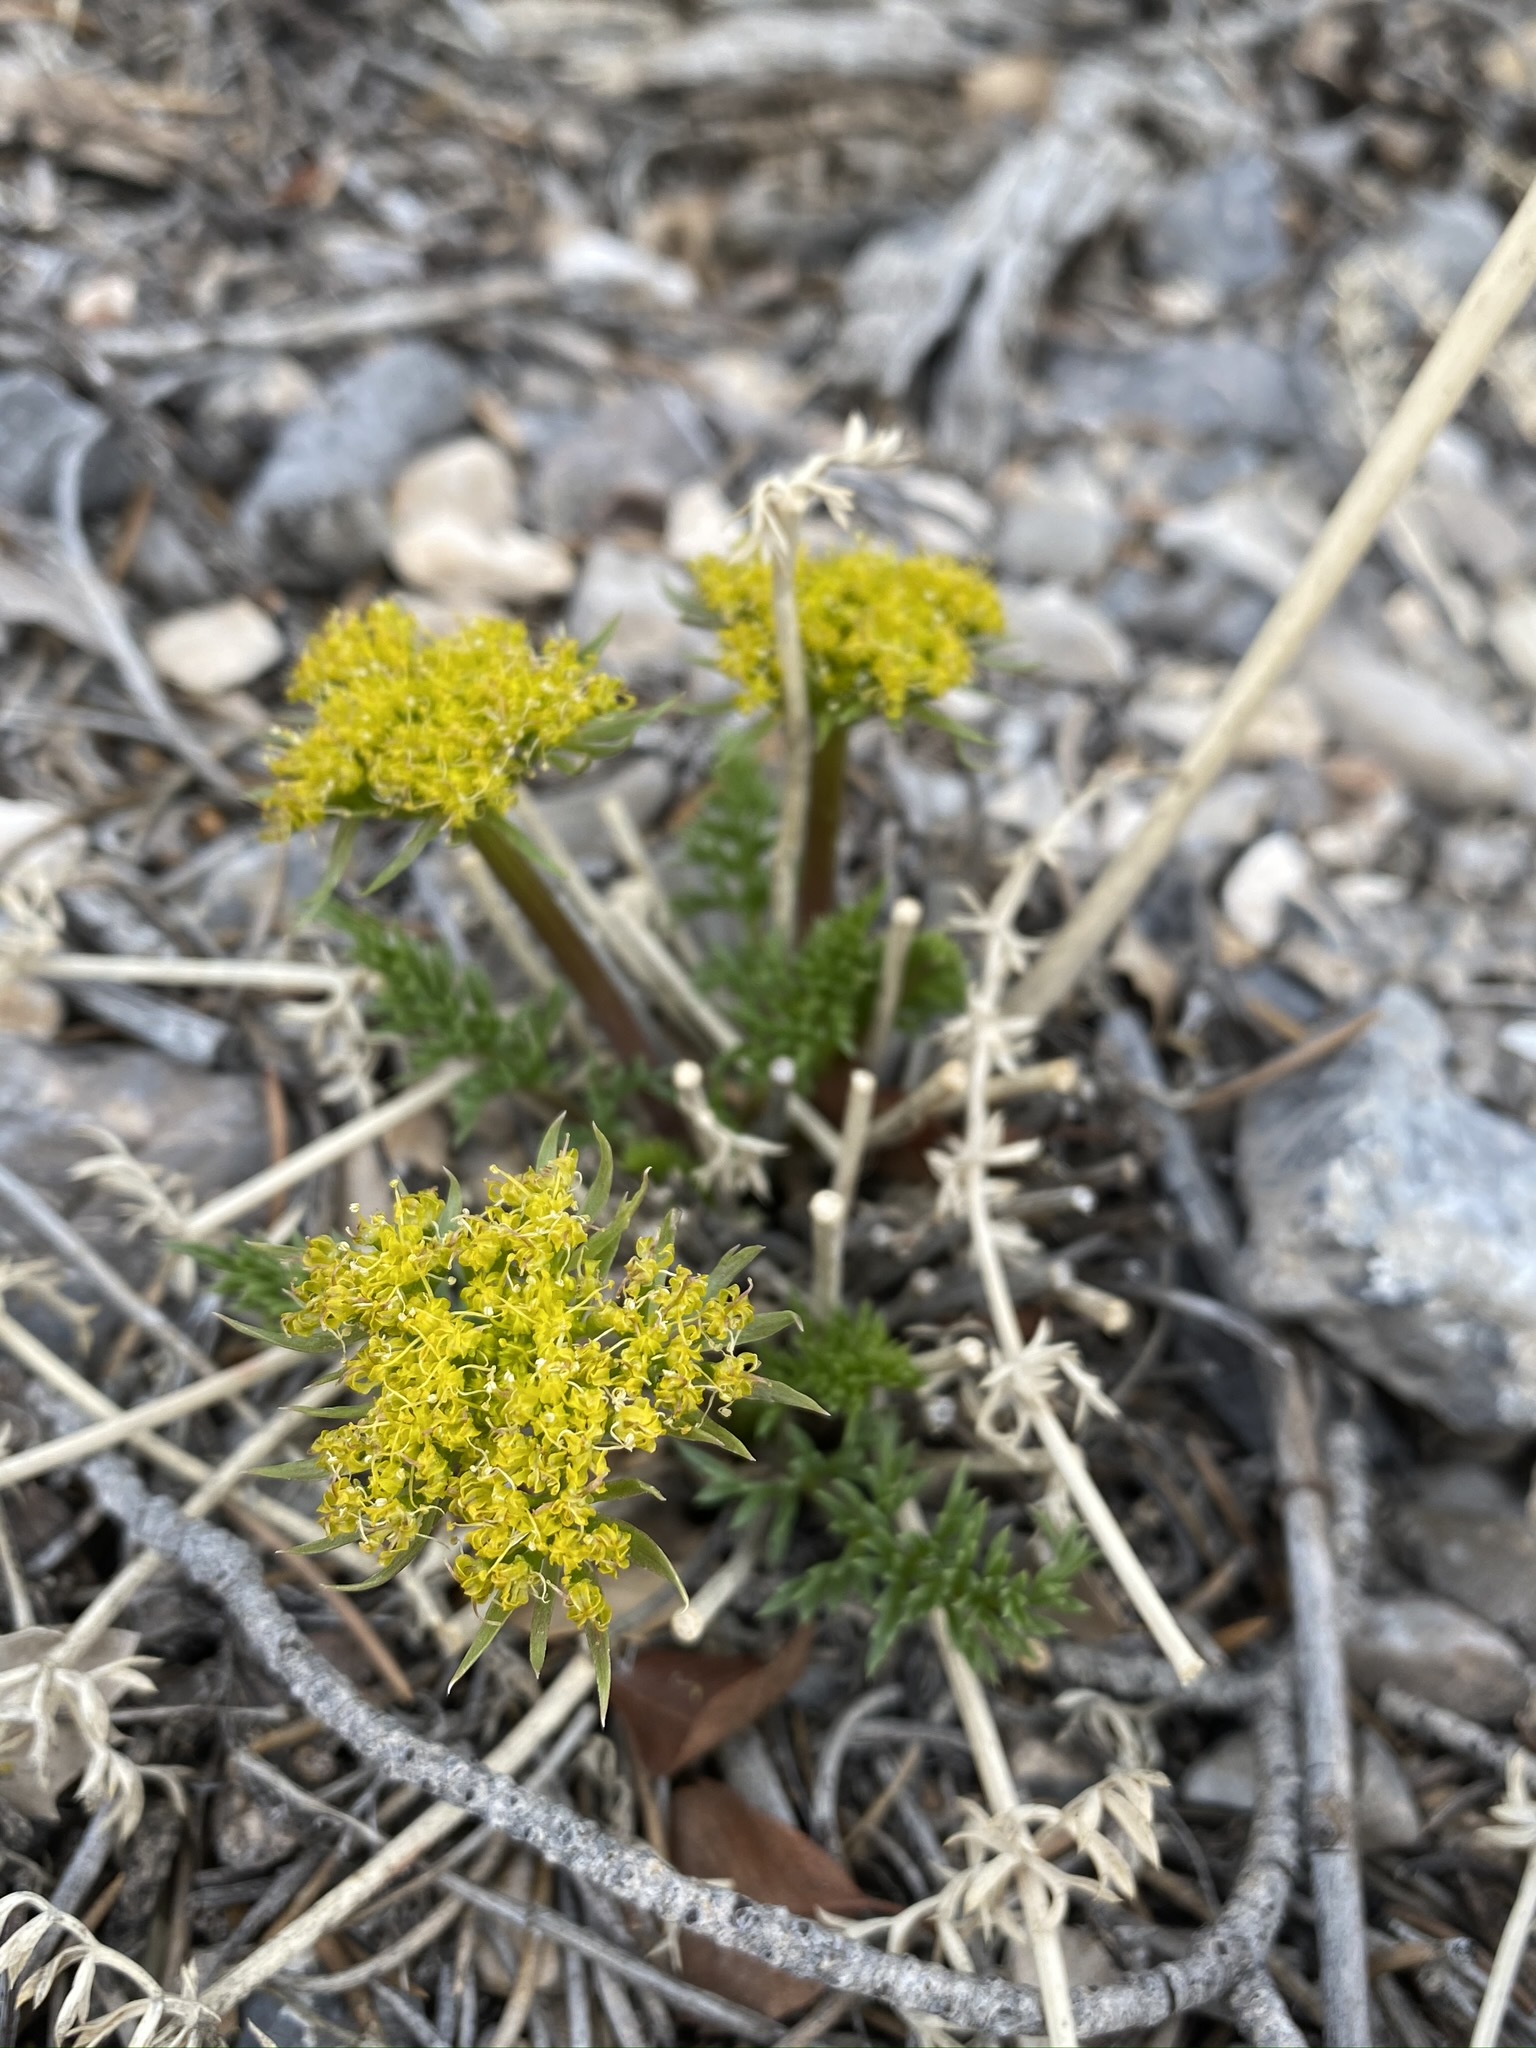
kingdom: Plantae
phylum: Tracheophyta
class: Magnoliopsida
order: Apiales
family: Apiaceae
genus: Lomatium
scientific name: Lomatium parryi
